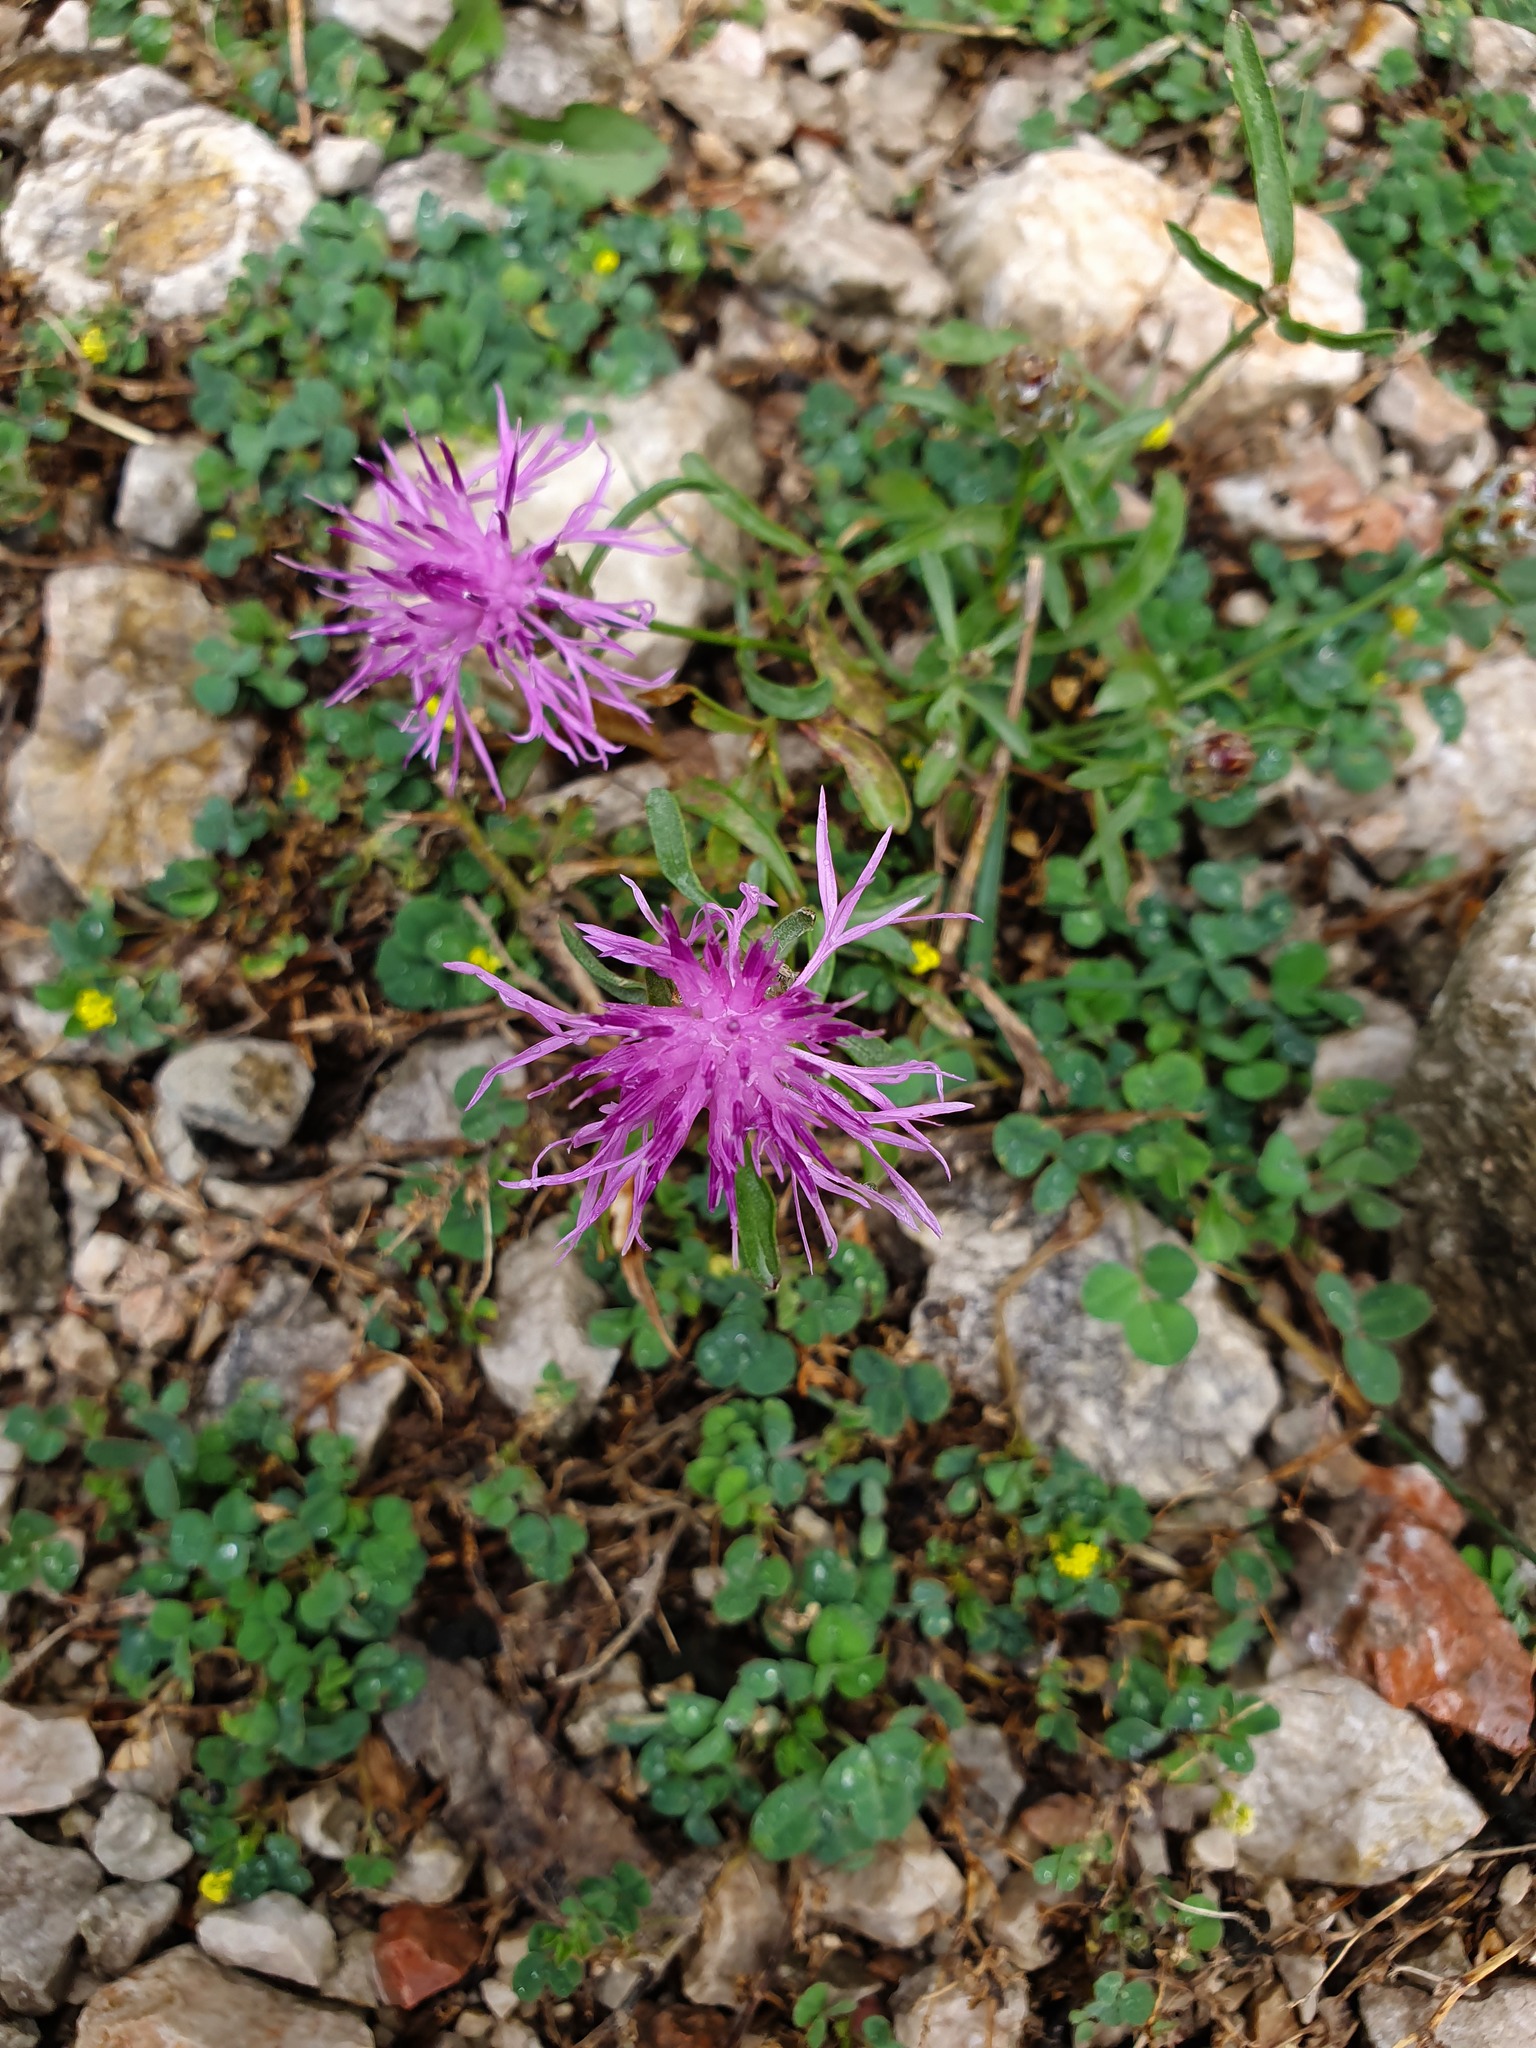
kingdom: Plantae
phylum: Tracheophyta
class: Magnoliopsida
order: Asterales
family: Asteraceae
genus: Centaurea
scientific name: Centaurea alba
